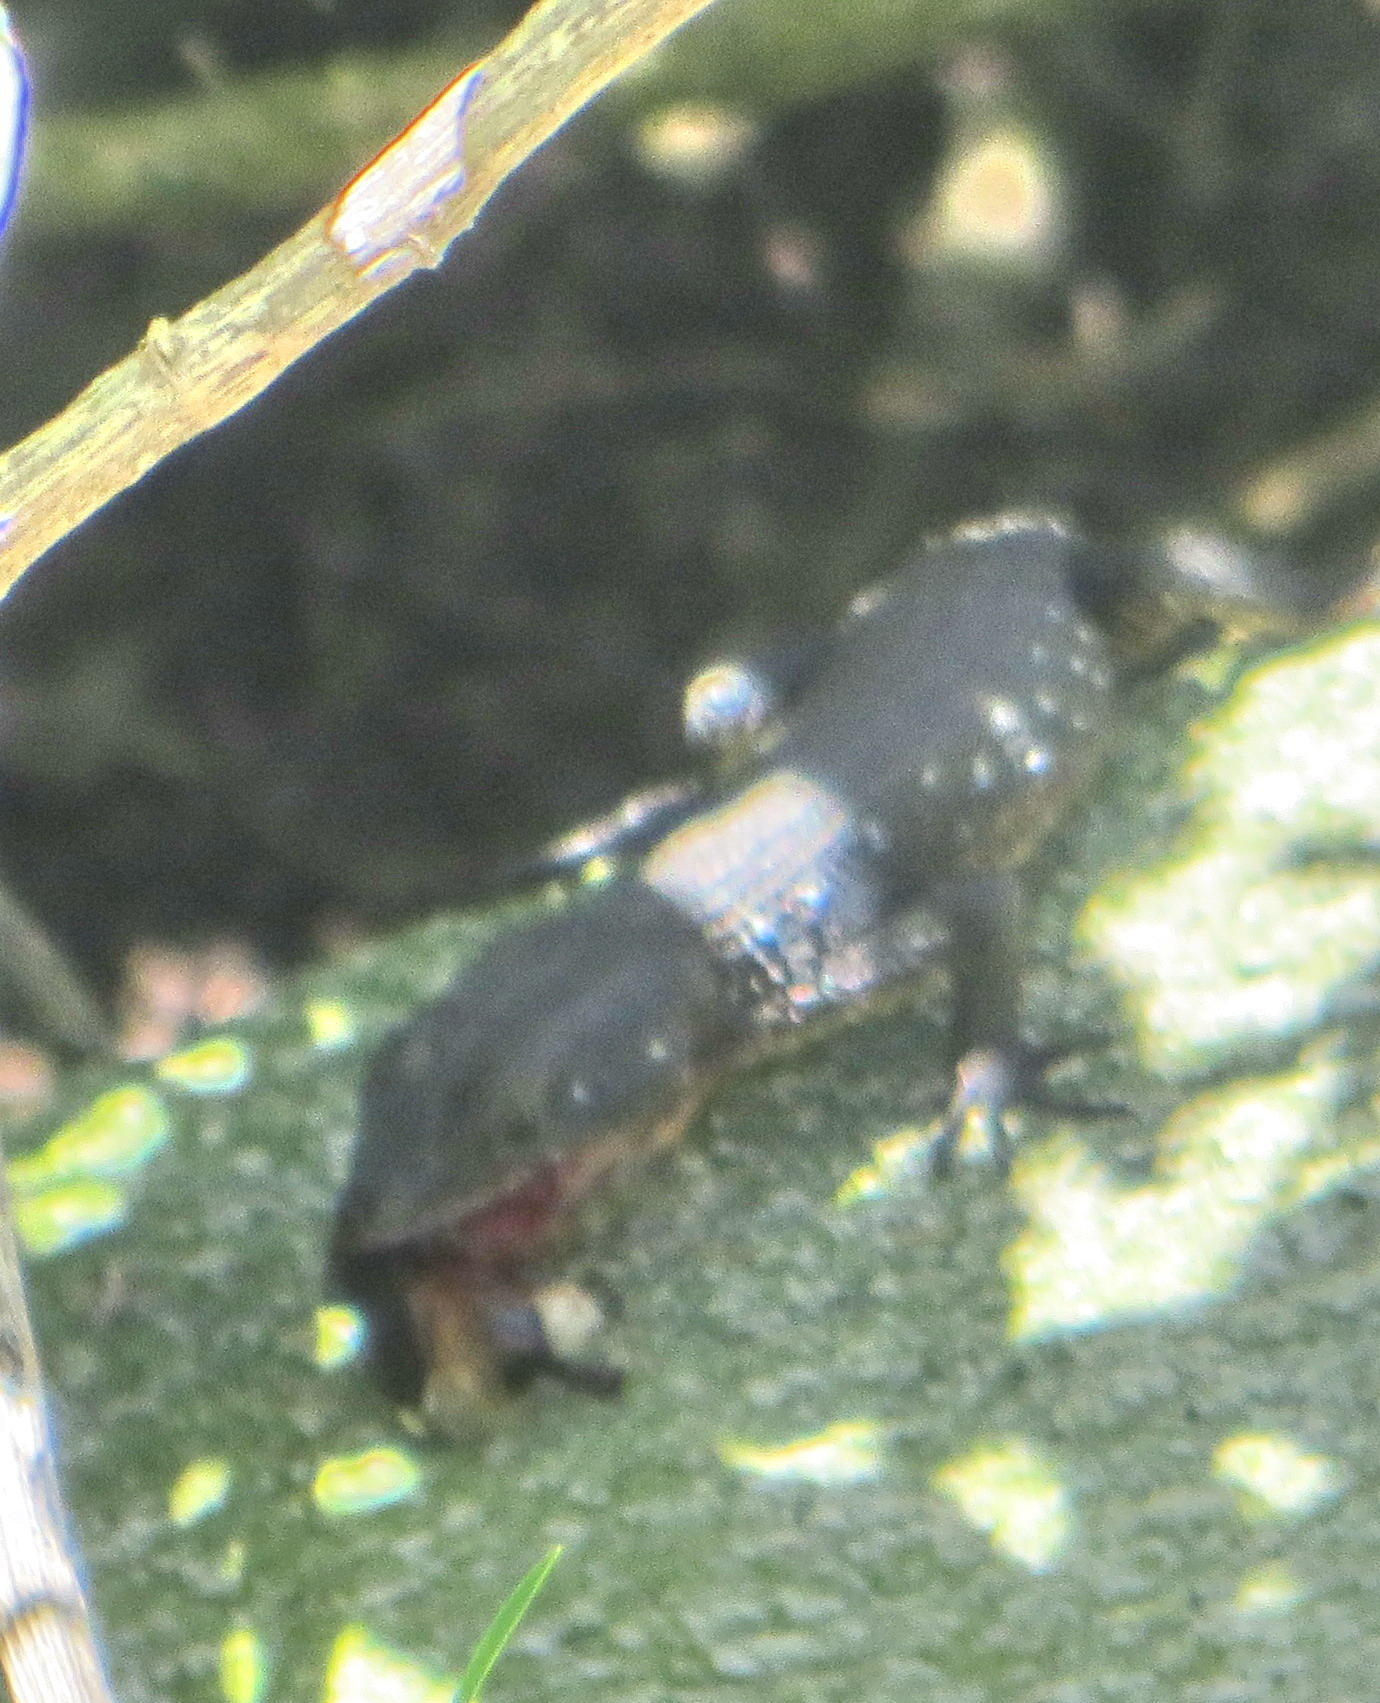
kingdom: Animalia
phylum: Chordata
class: Squamata
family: Cordylidae
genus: Ninurta
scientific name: Ninurta coeruleopunctatus
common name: Blue-spotted girdled lizard
